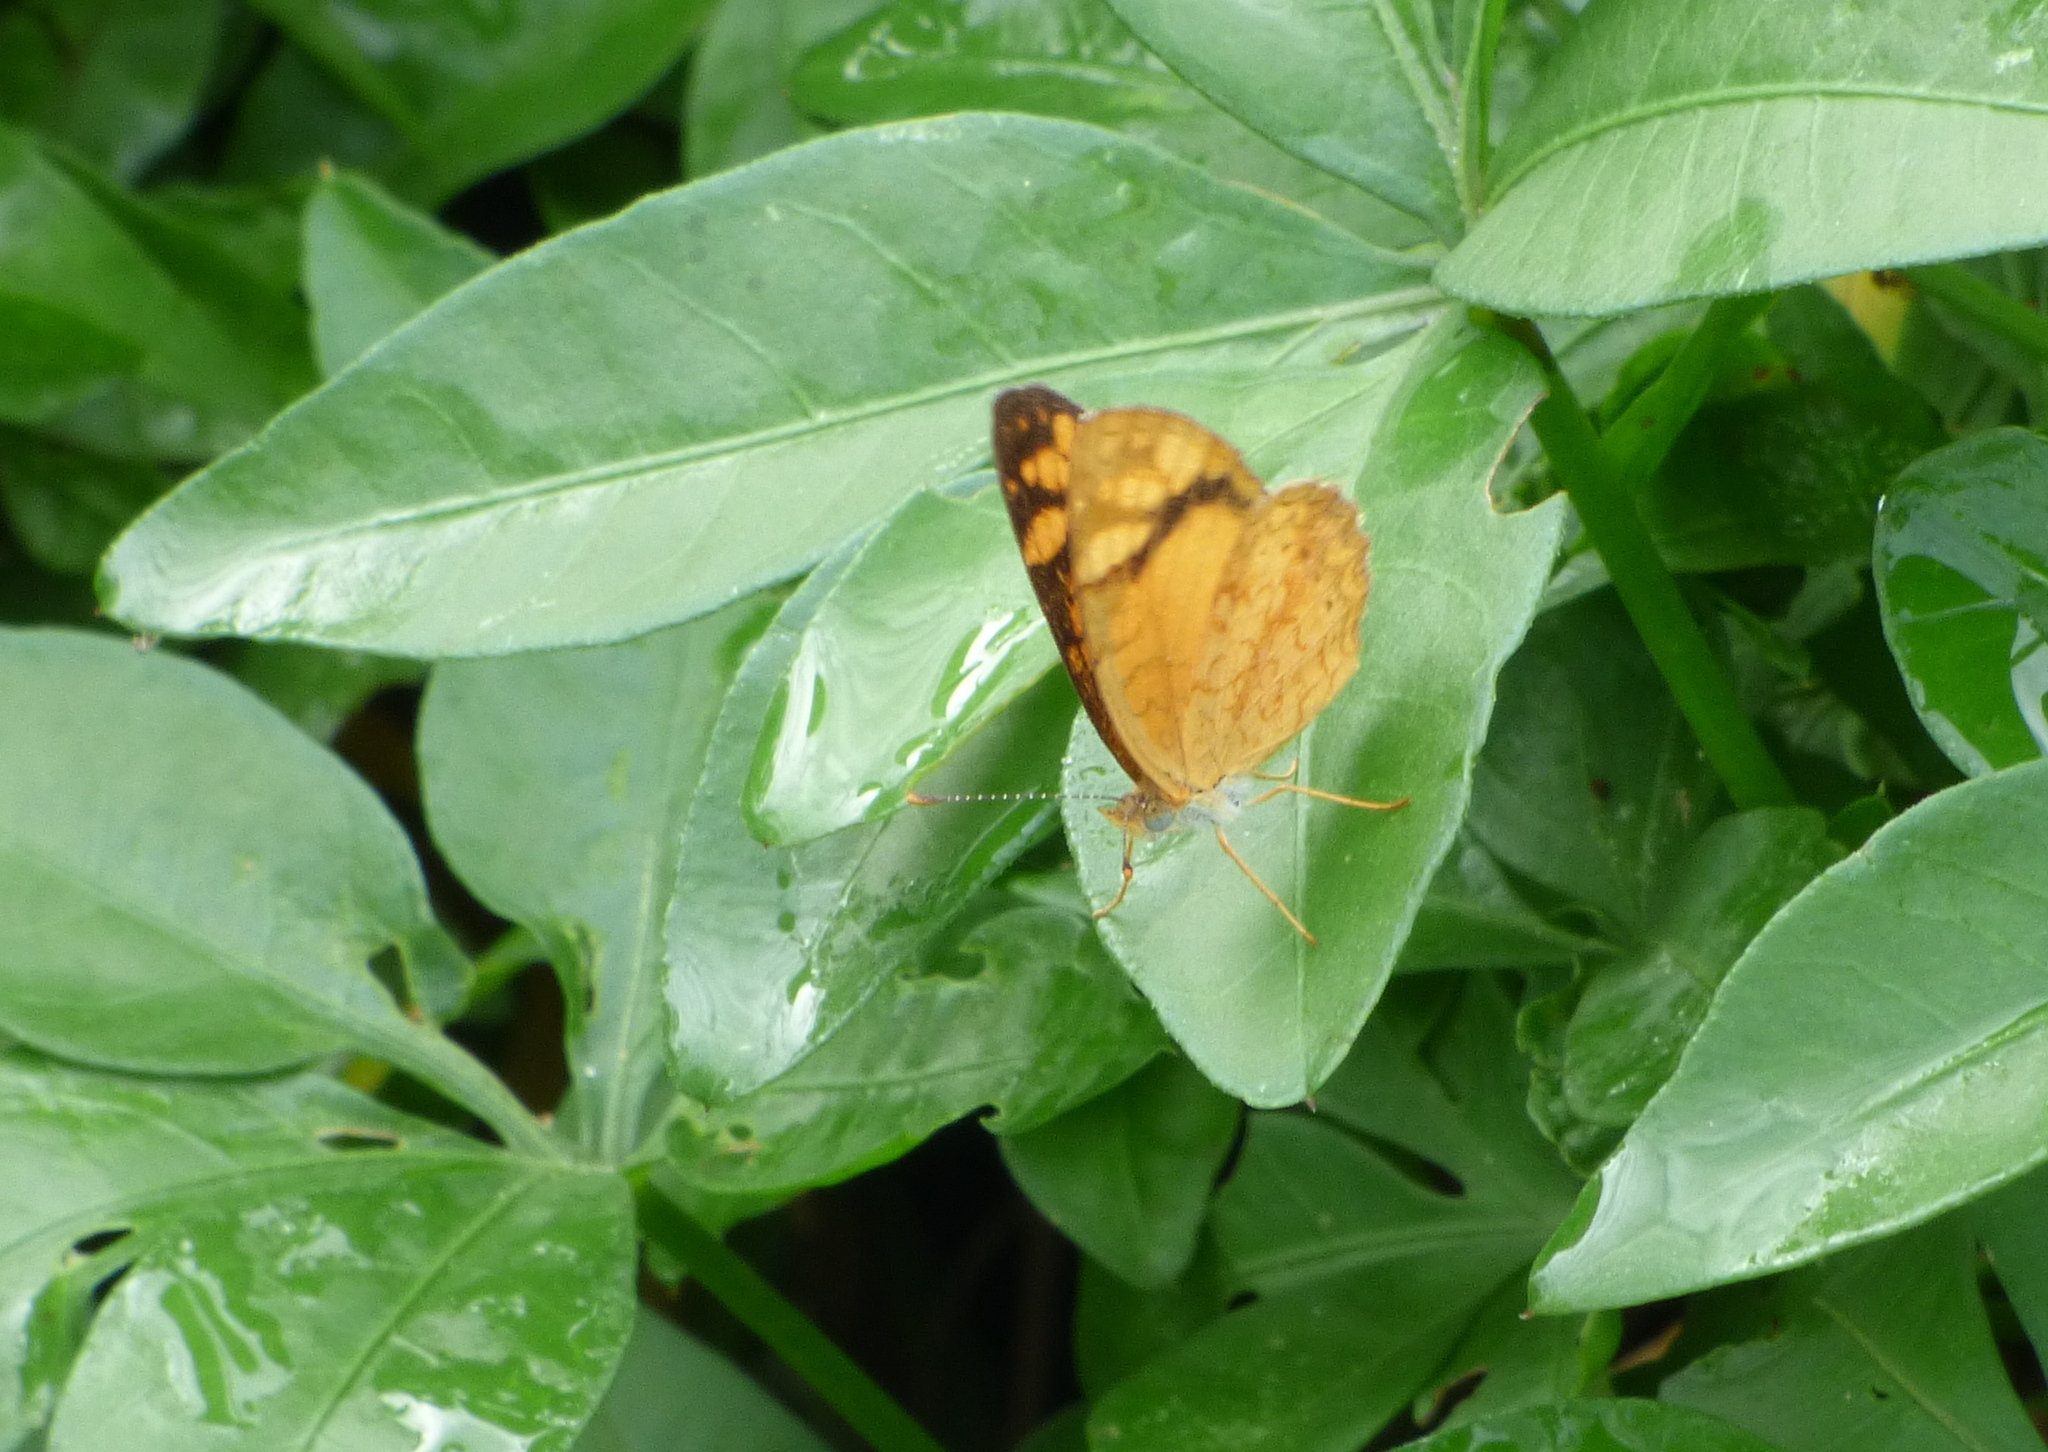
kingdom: Animalia
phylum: Arthropoda
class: Insecta
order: Lepidoptera
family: Nymphalidae
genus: Tegosa
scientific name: Tegosa orobia
